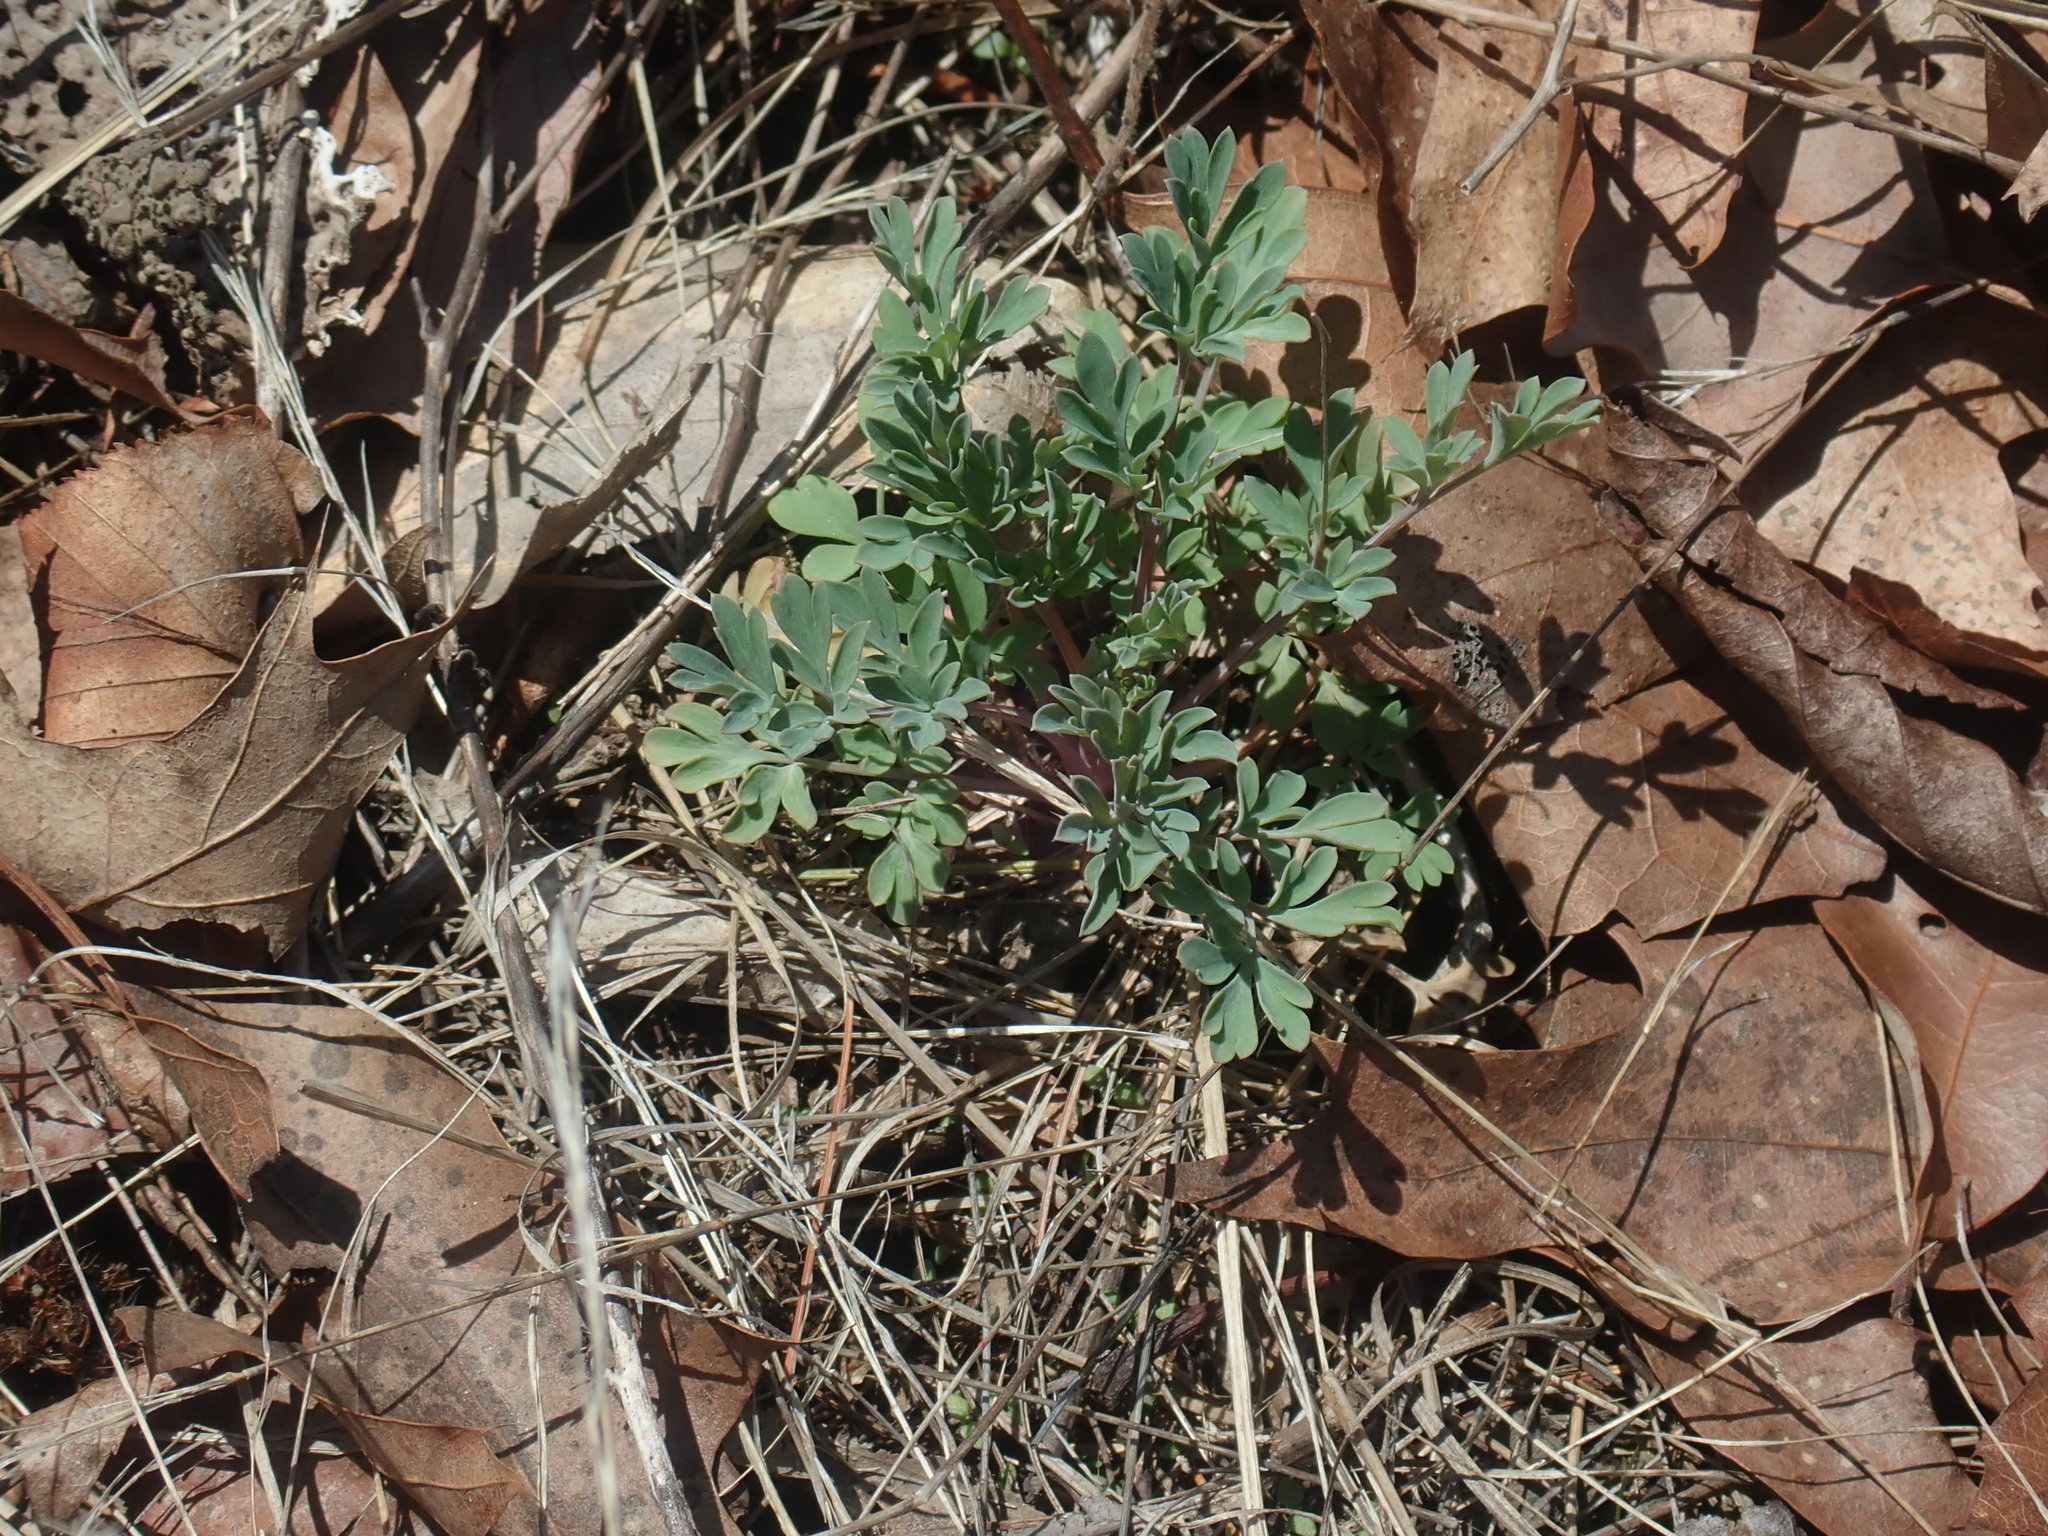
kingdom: Plantae
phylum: Tracheophyta
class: Magnoliopsida
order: Ranunculales
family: Papaveraceae
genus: Capnoides
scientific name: Capnoides sempervirens
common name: Rock harlequin
